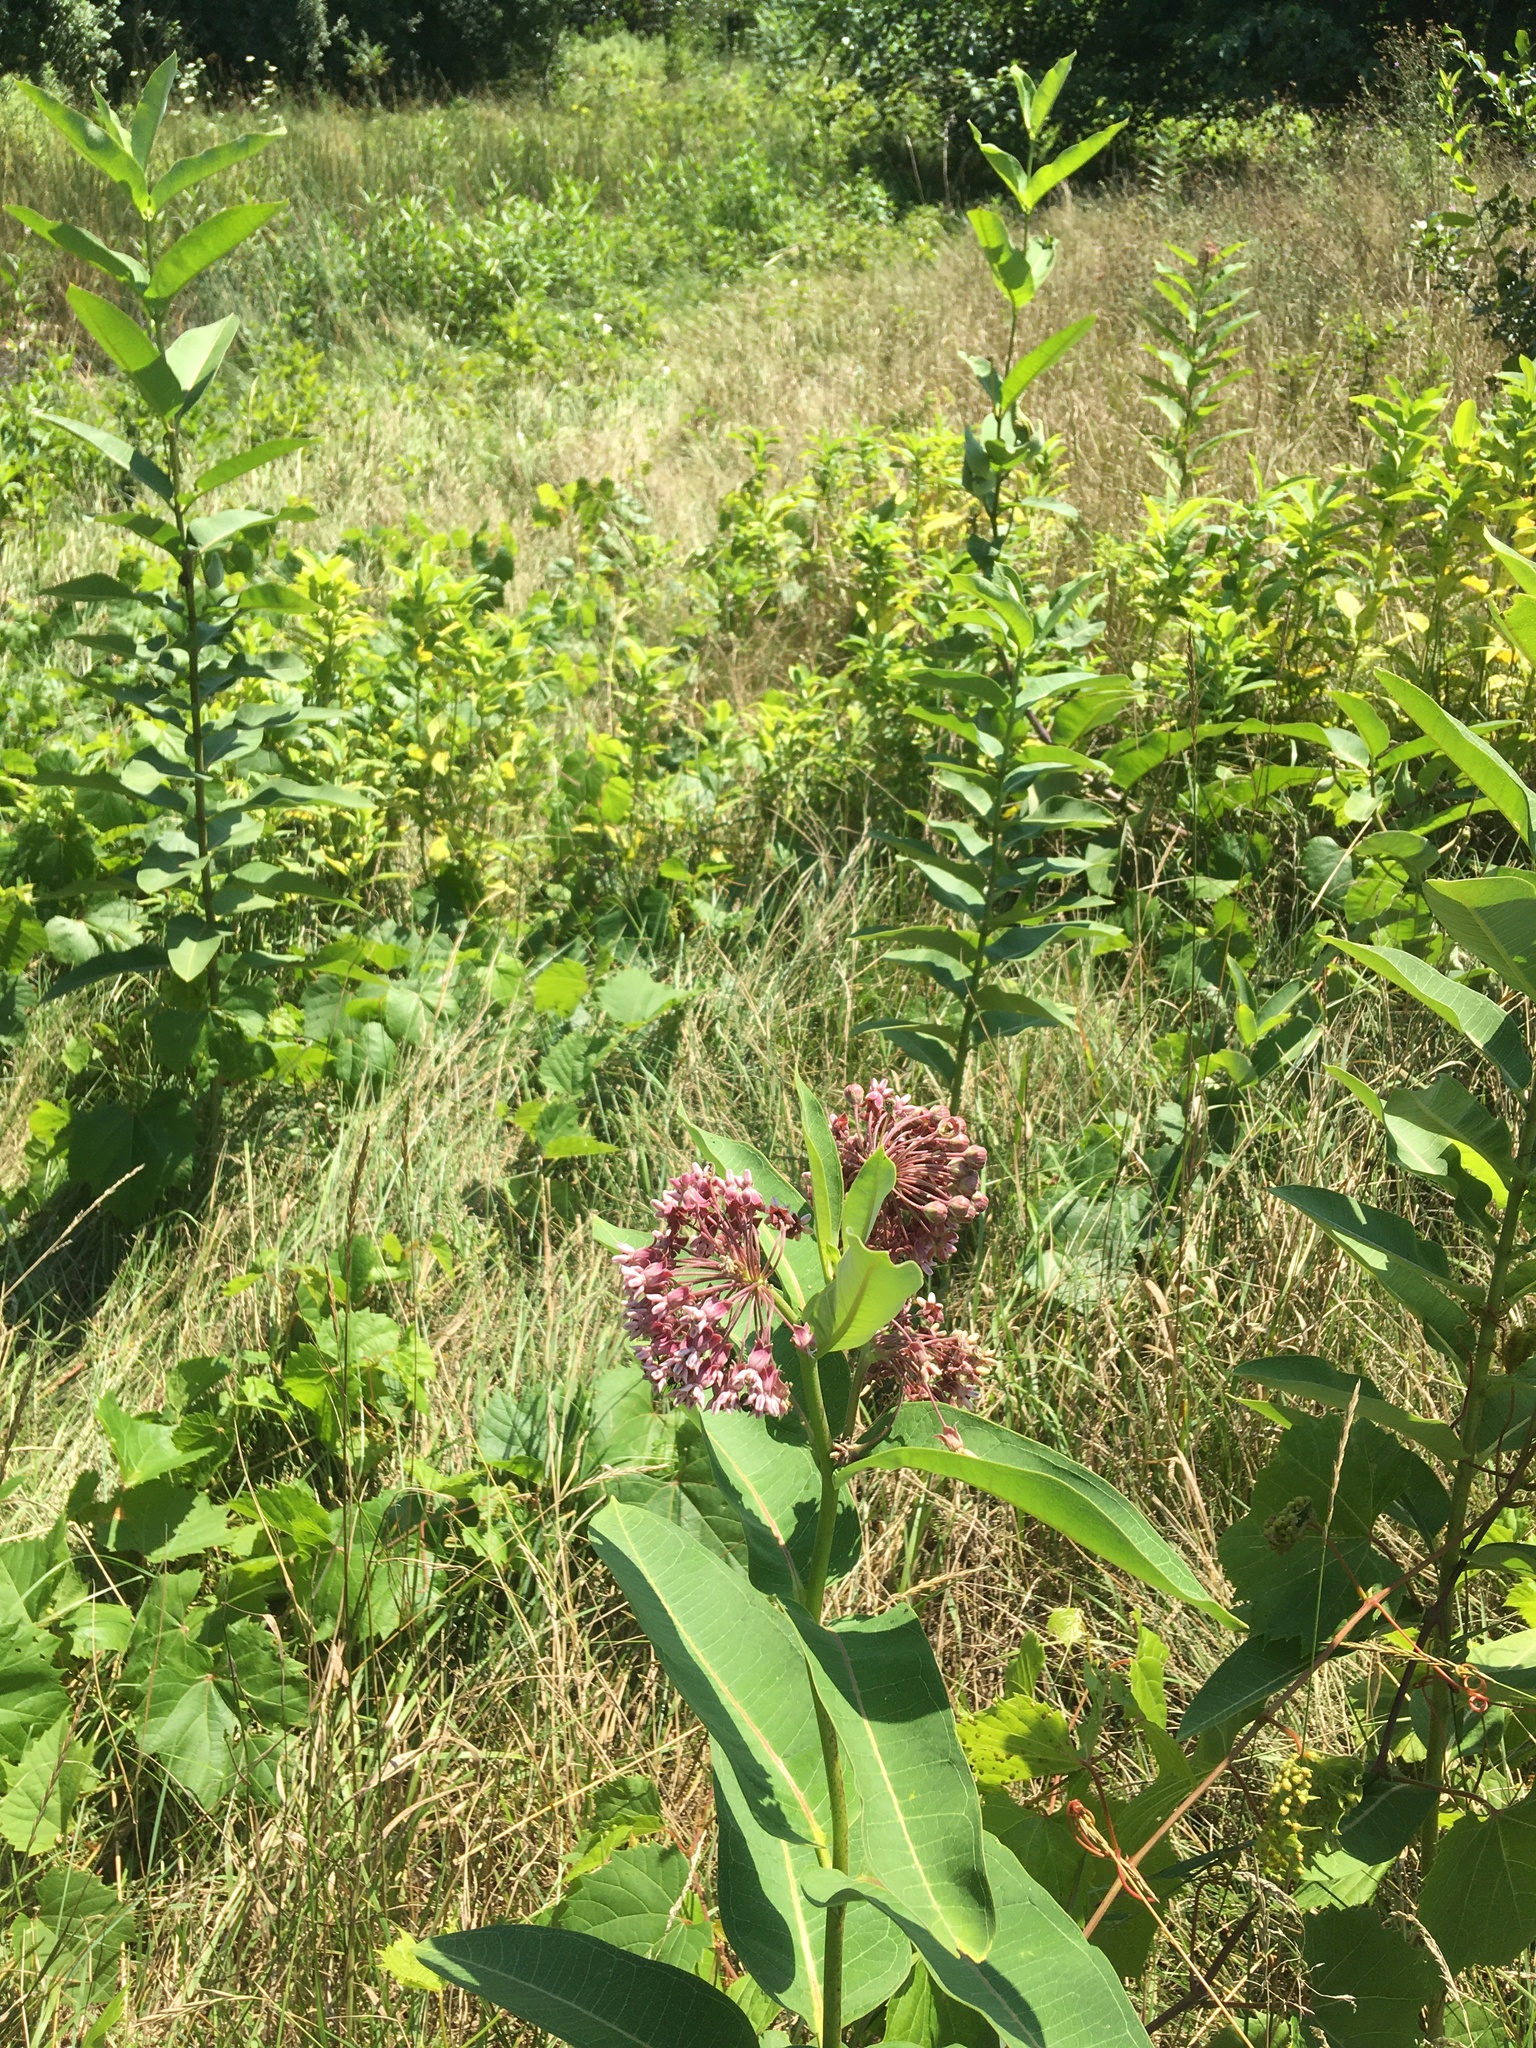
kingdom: Plantae
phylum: Tracheophyta
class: Magnoliopsida
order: Gentianales
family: Apocynaceae
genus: Asclepias
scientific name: Asclepias syriaca
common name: Common milkweed
